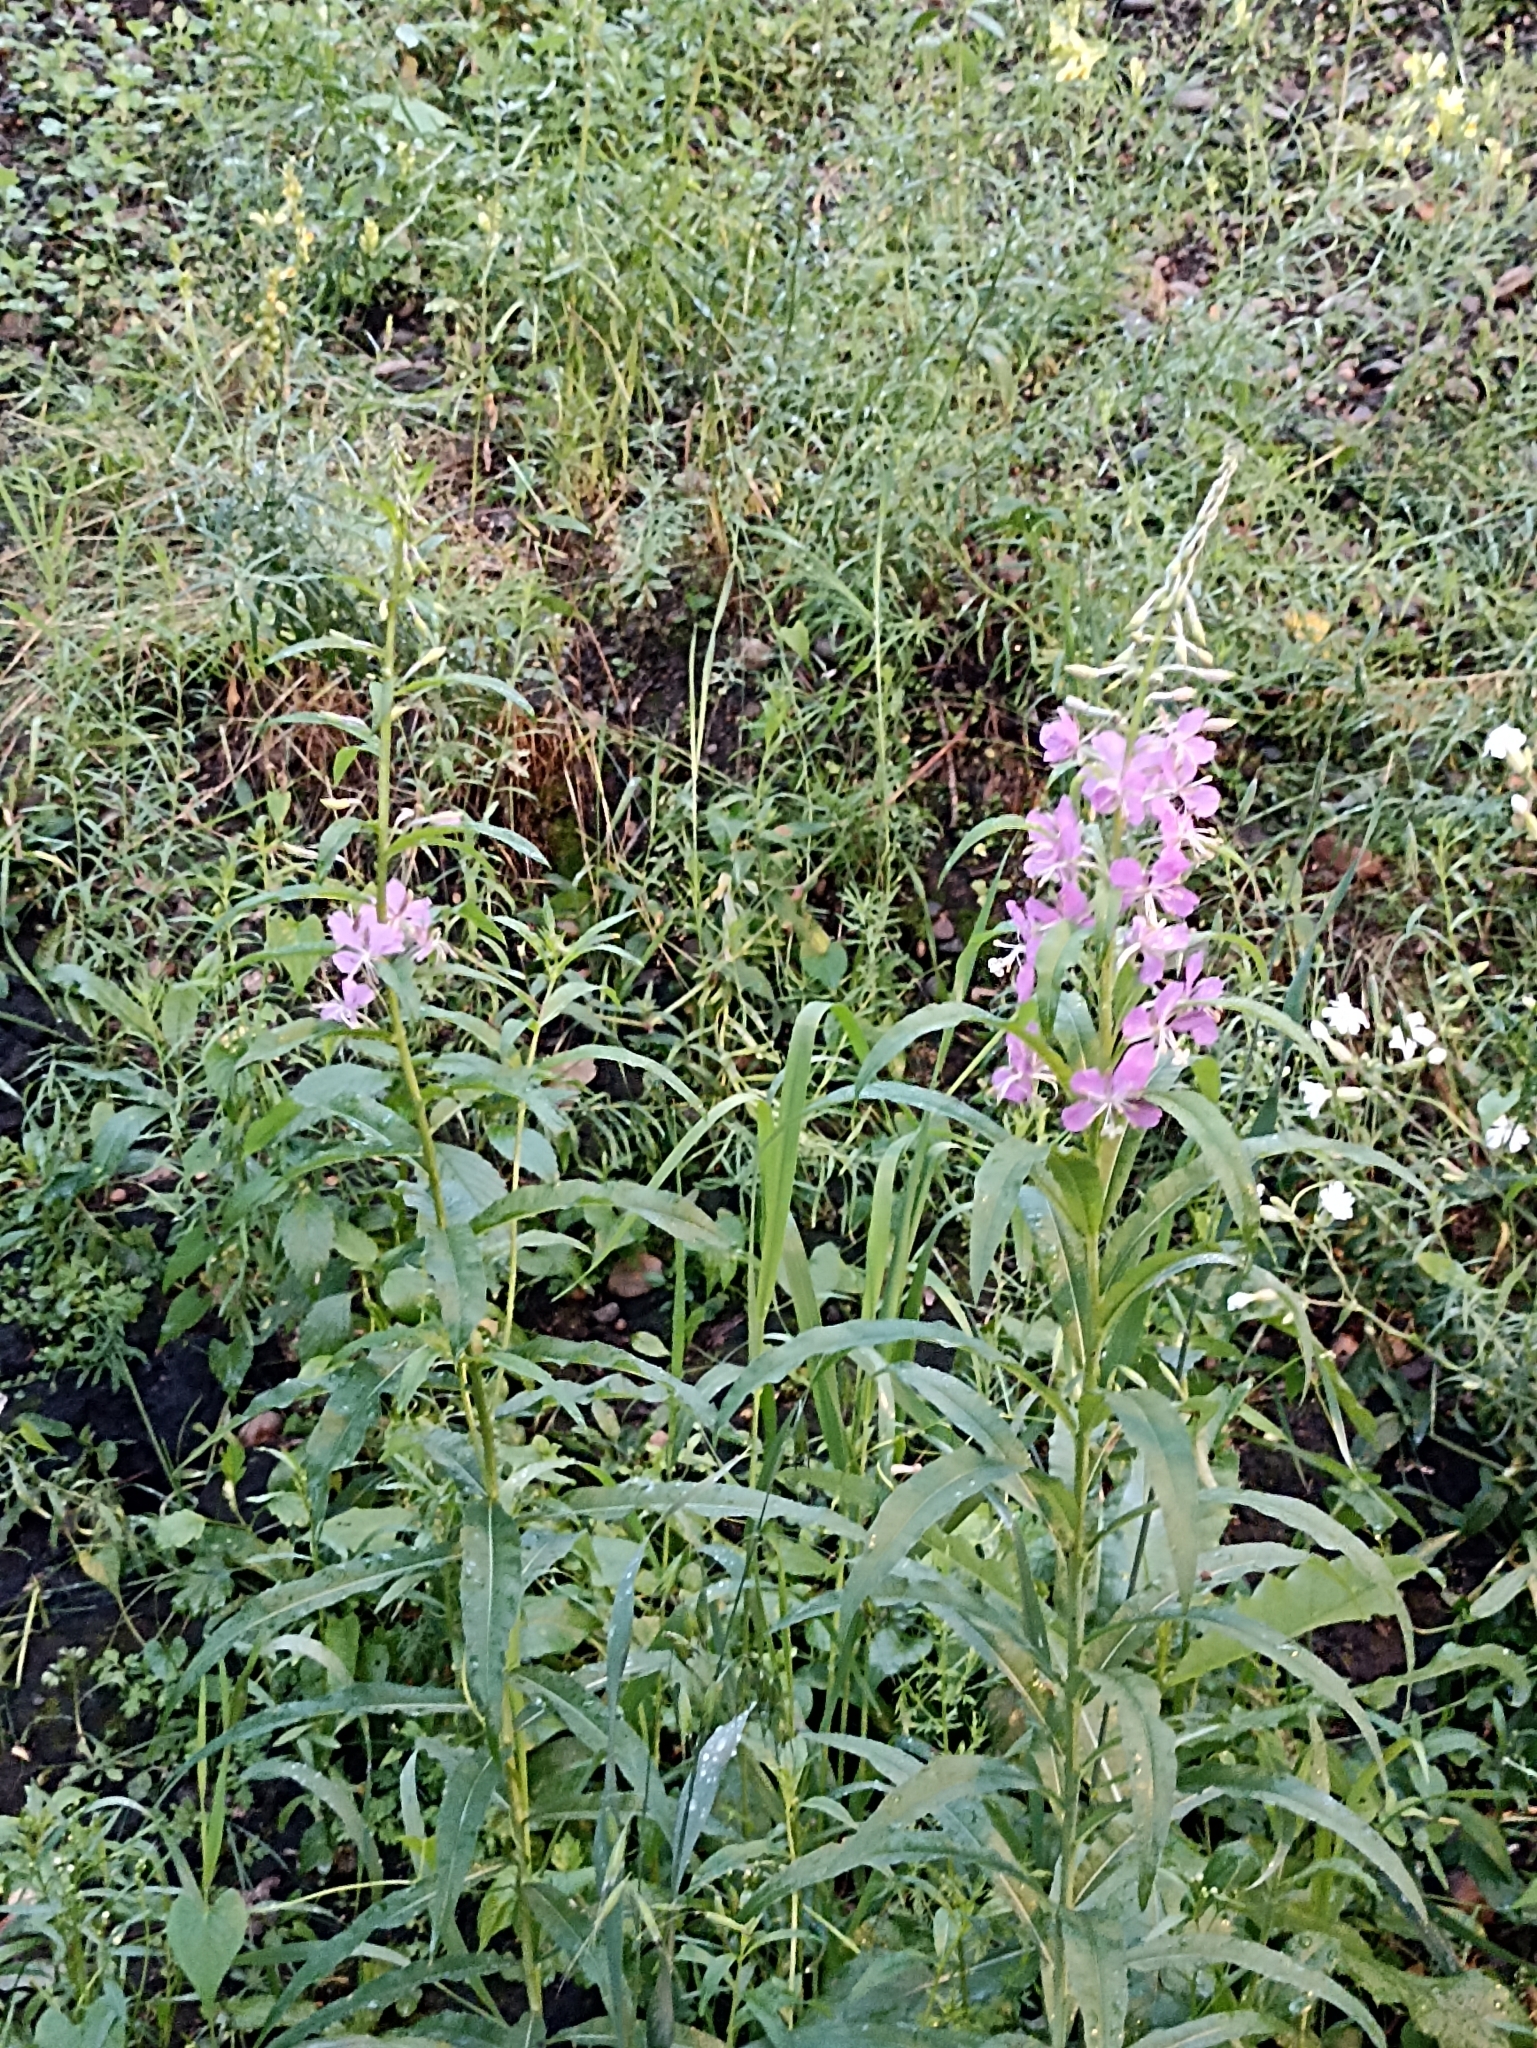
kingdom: Plantae
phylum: Tracheophyta
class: Magnoliopsida
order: Myrtales
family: Onagraceae
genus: Chamaenerion
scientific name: Chamaenerion angustifolium
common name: Fireweed
